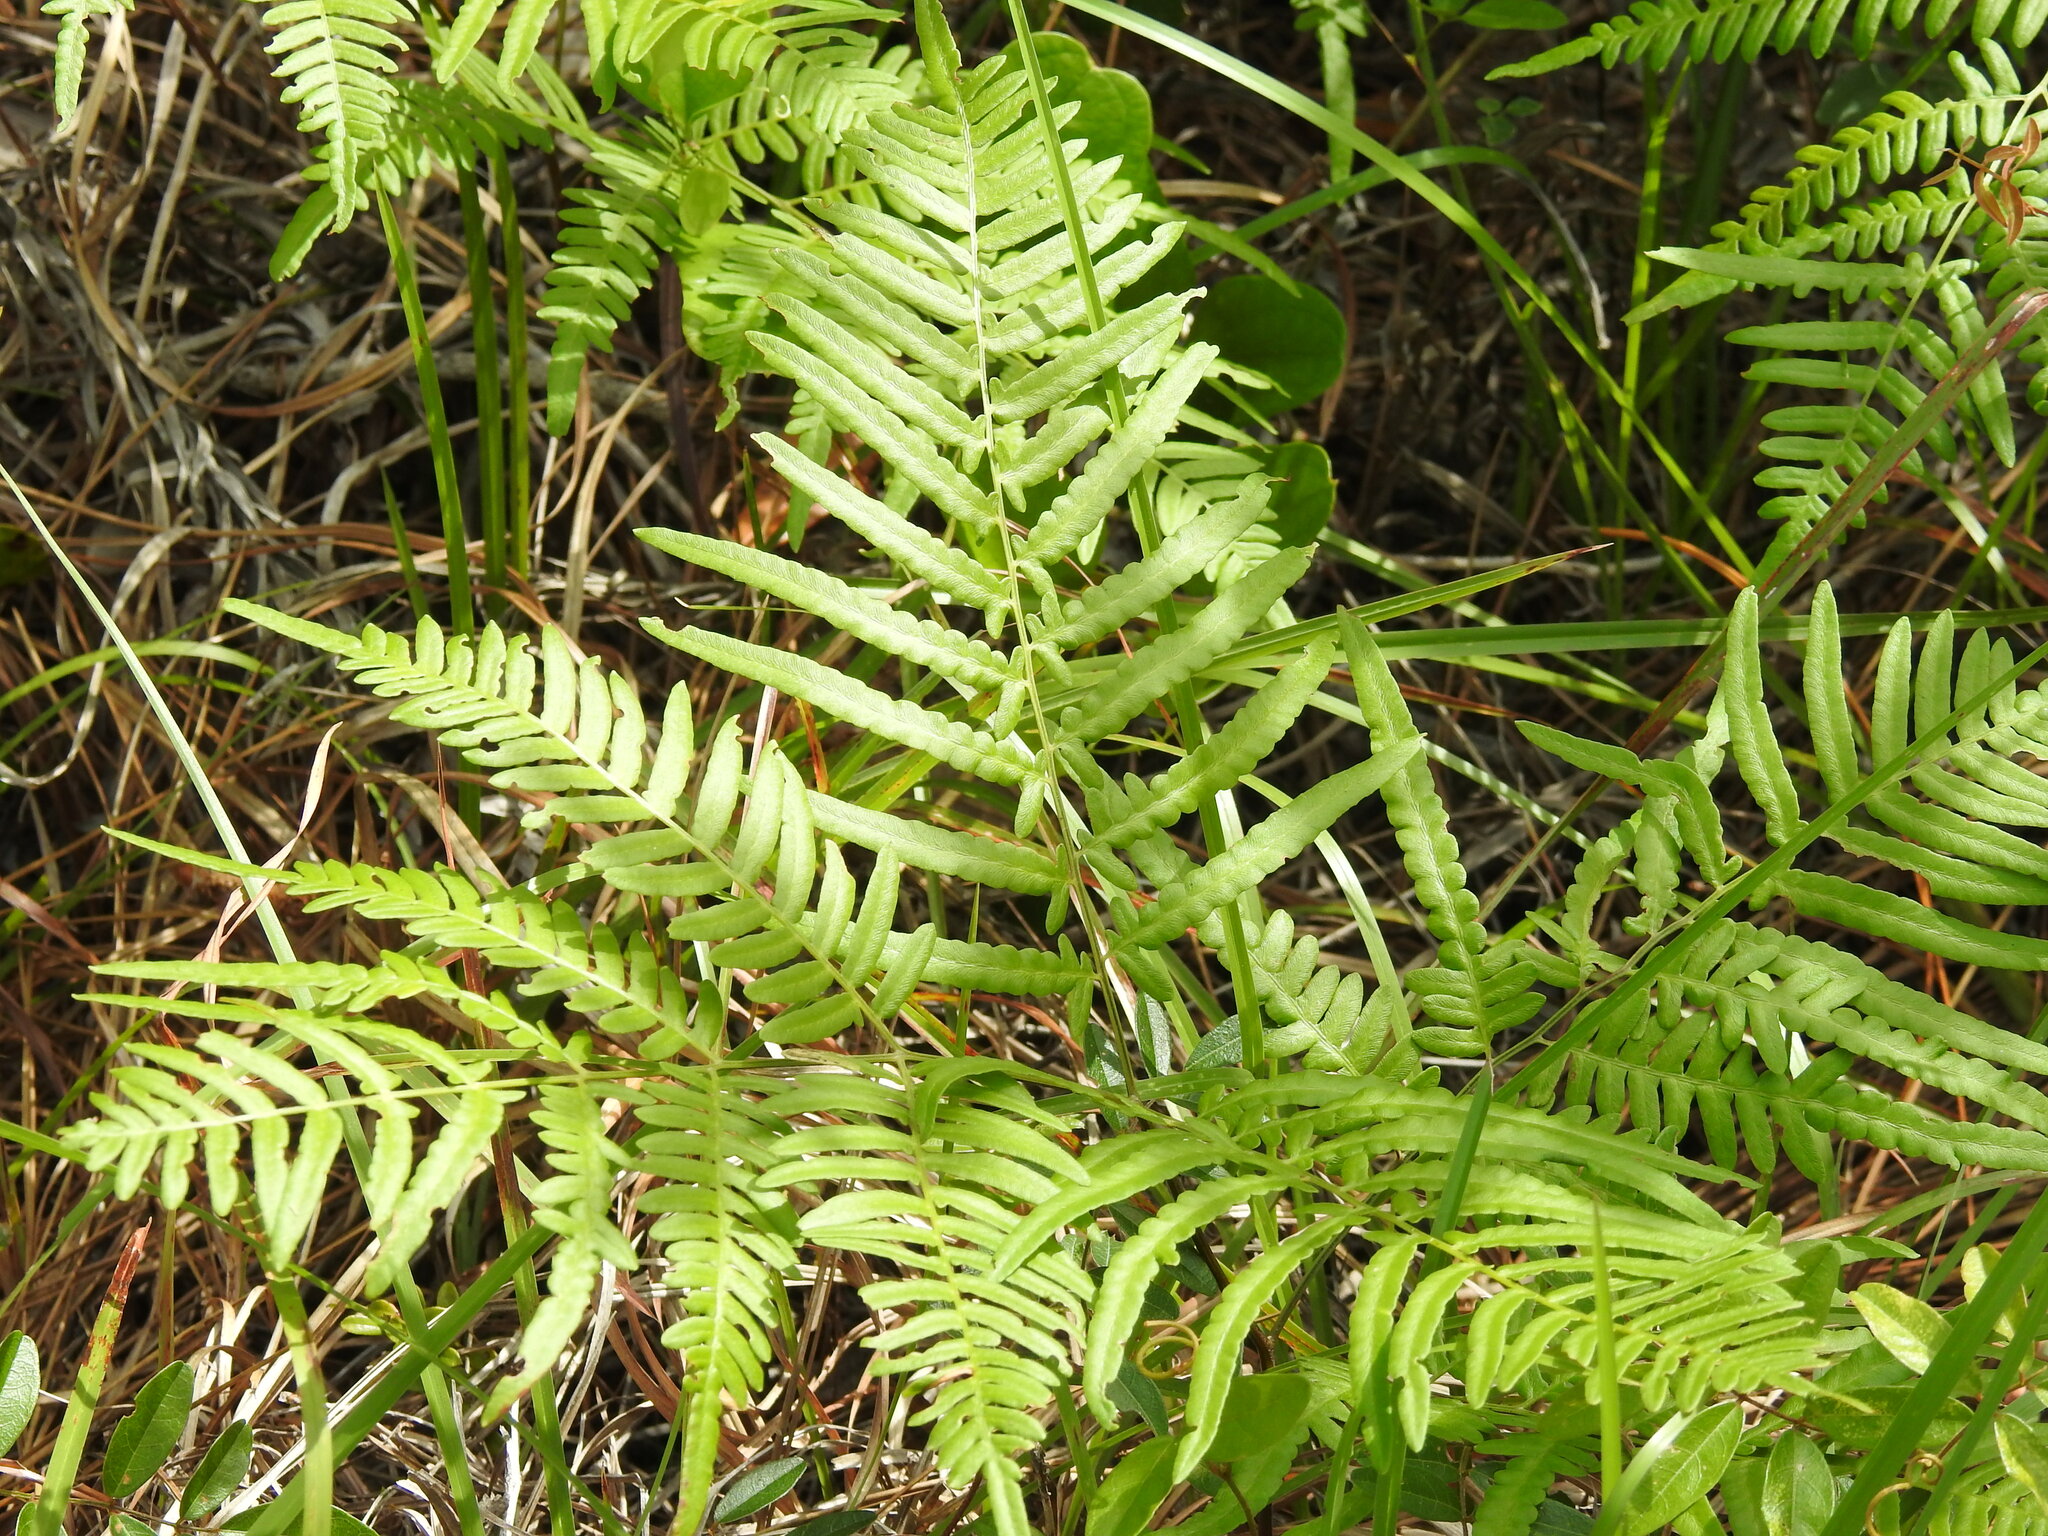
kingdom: Plantae
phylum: Tracheophyta
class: Polypodiopsida
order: Polypodiales
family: Dennstaedtiaceae
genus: Pteridium
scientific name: Pteridium
